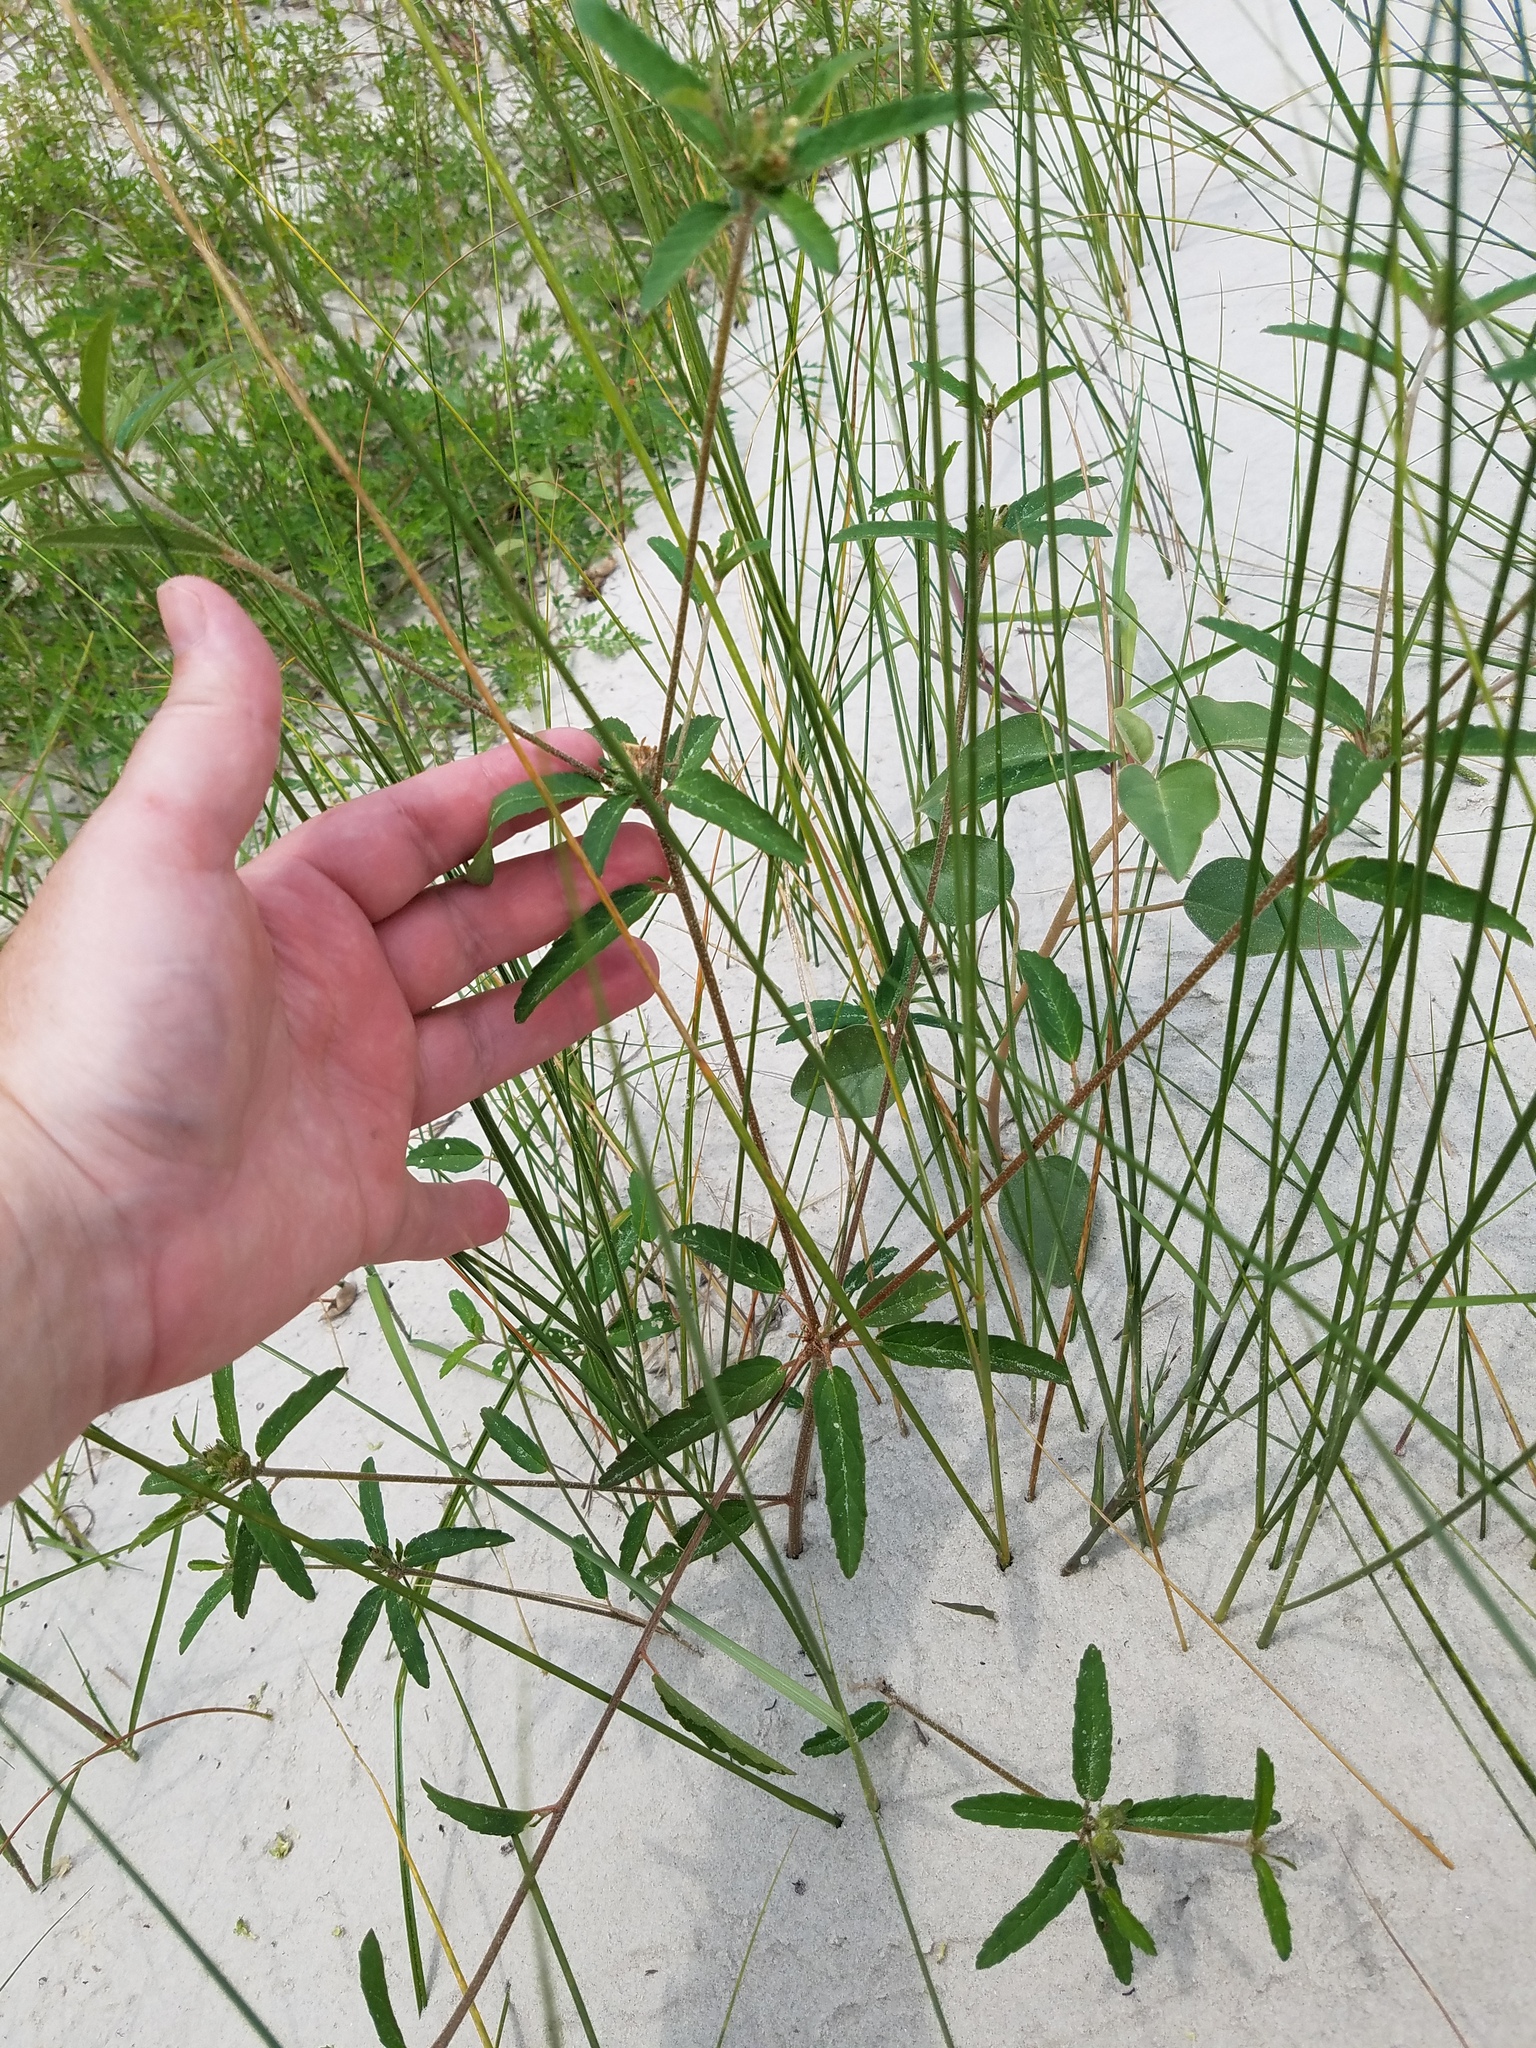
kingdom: Plantae
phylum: Tracheophyta
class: Magnoliopsida
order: Malpighiales
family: Euphorbiaceae
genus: Croton
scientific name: Croton glandulosus
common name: Tropic croton
